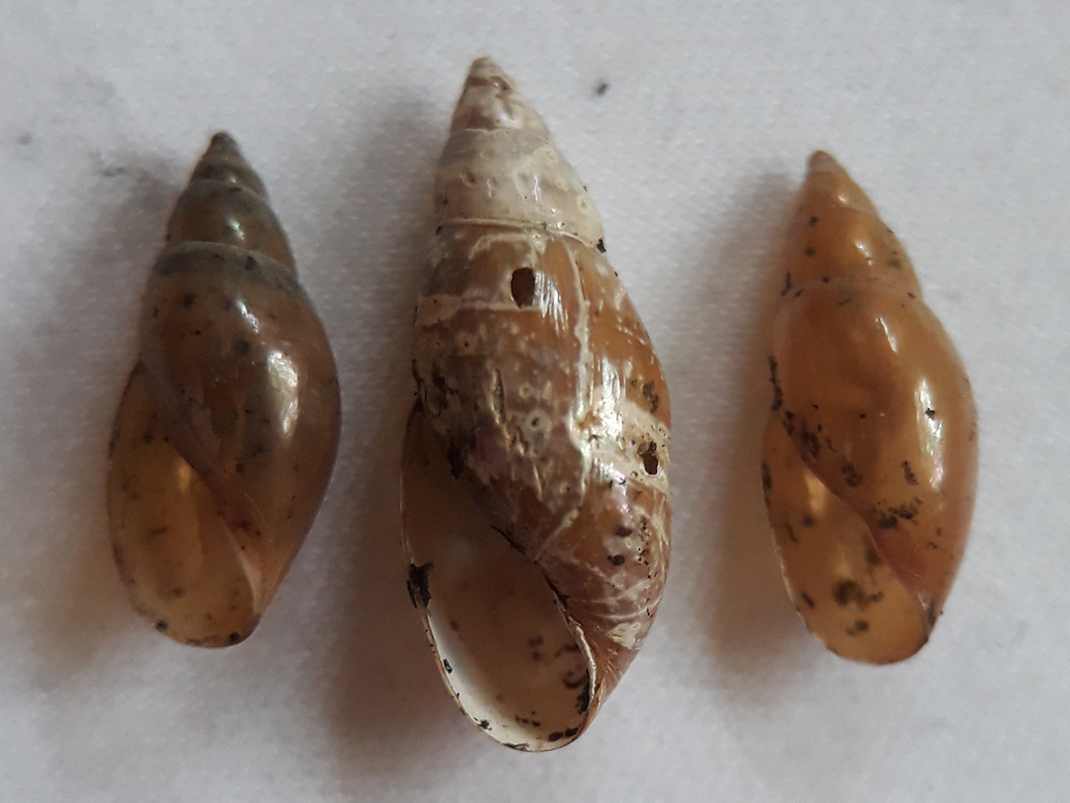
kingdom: Animalia
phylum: Mollusca
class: Gastropoda
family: Physidae
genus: Aplexa
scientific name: Aplexa hypnorum
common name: Moss bladder snail
